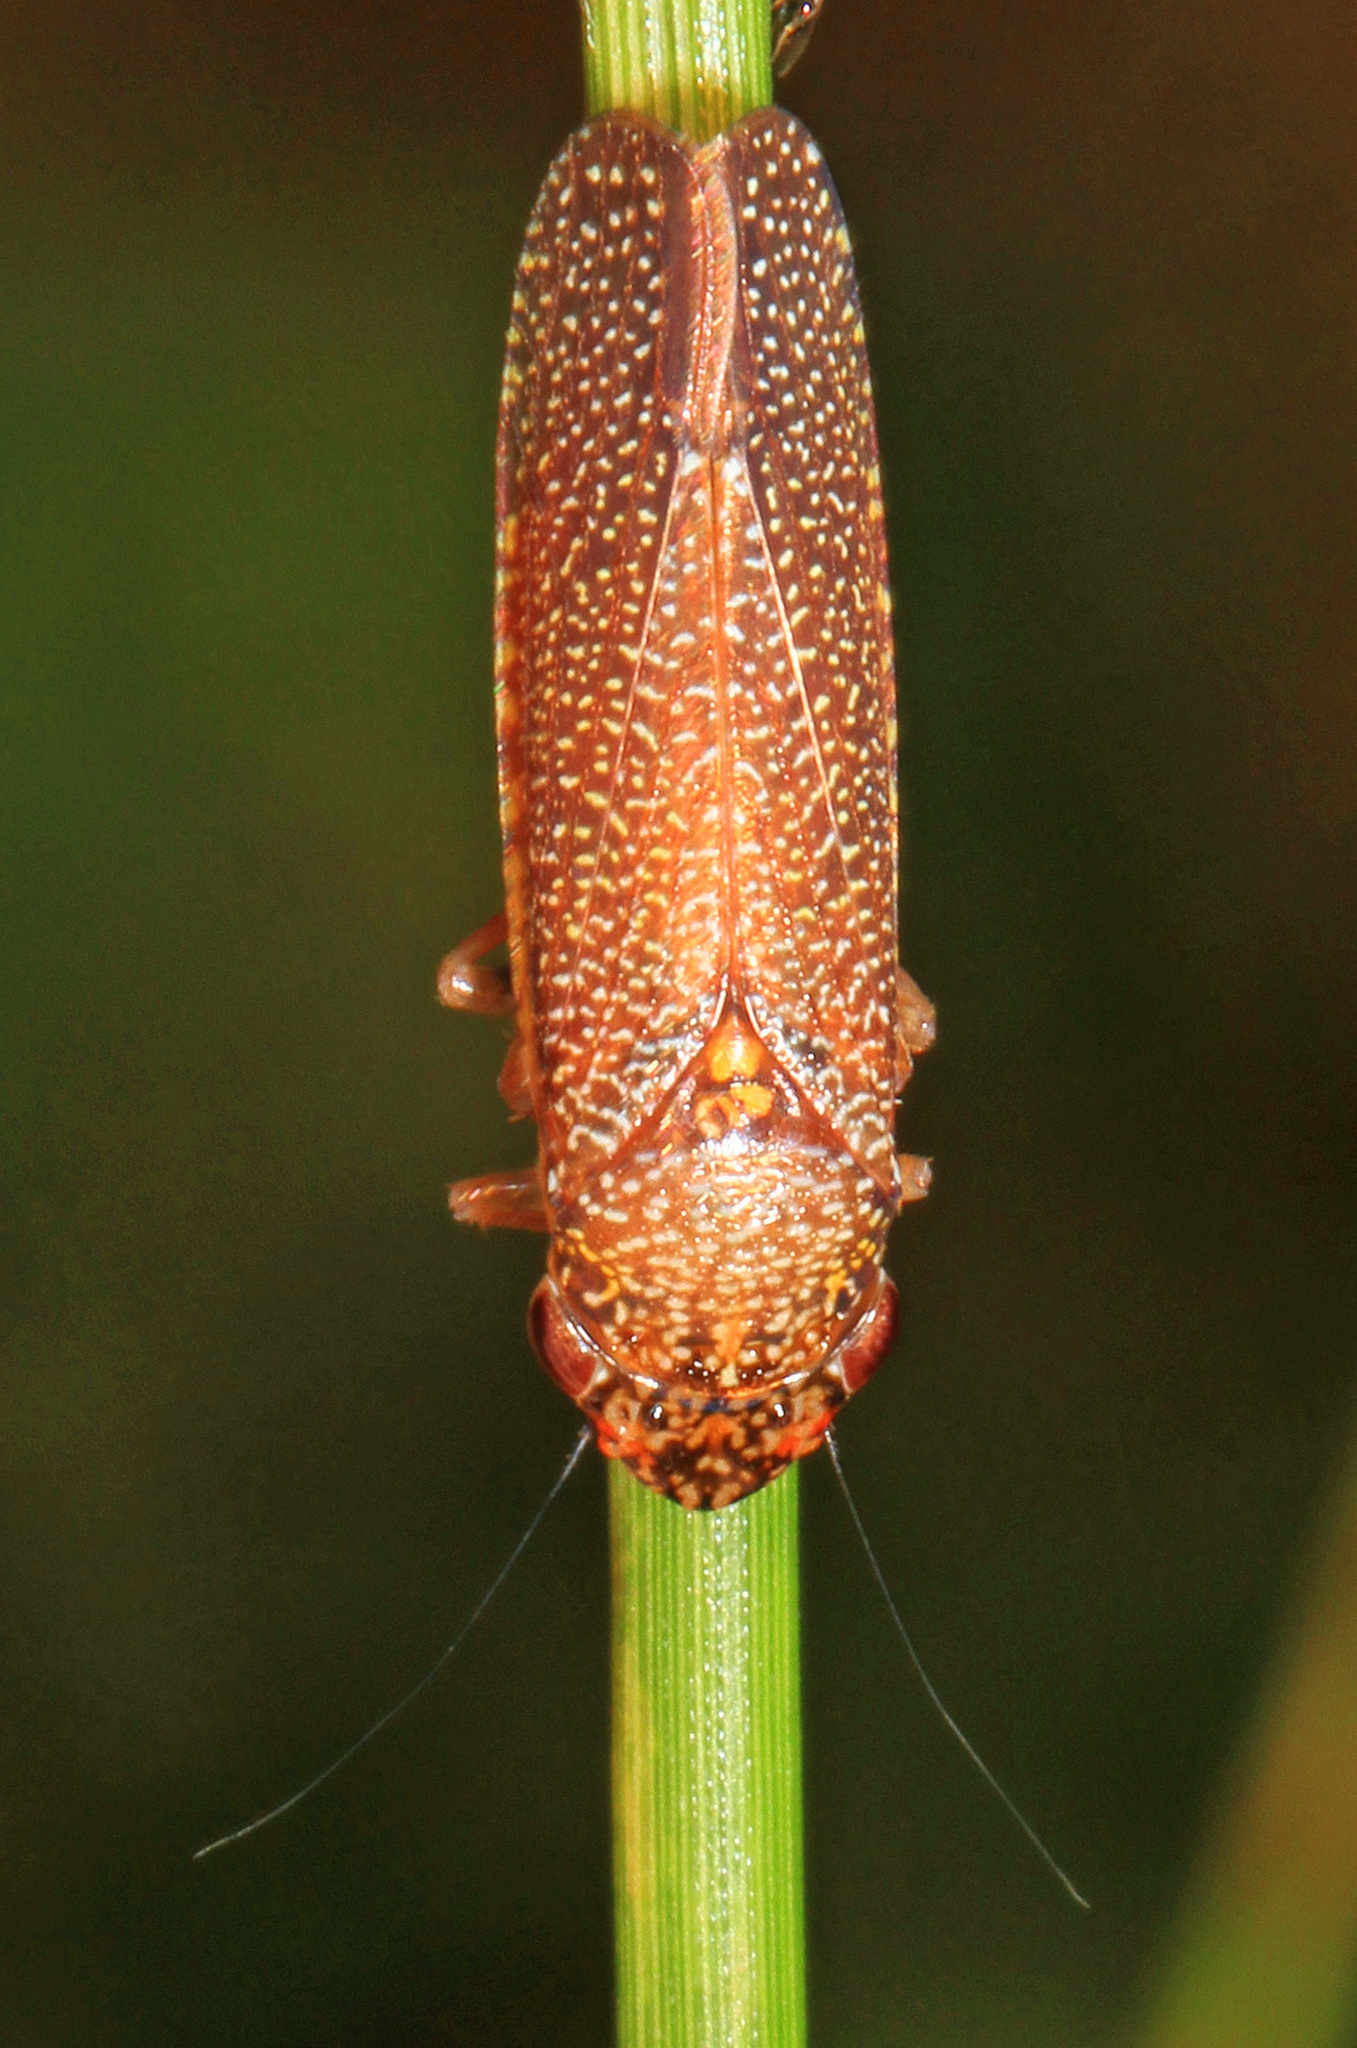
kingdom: Animalia
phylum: Arthropoda
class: Insecta
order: Hemiptera
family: Cicadellidae
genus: Paraulacizes
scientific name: Paraulacizes irrorata
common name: Speckled sharpshooter
